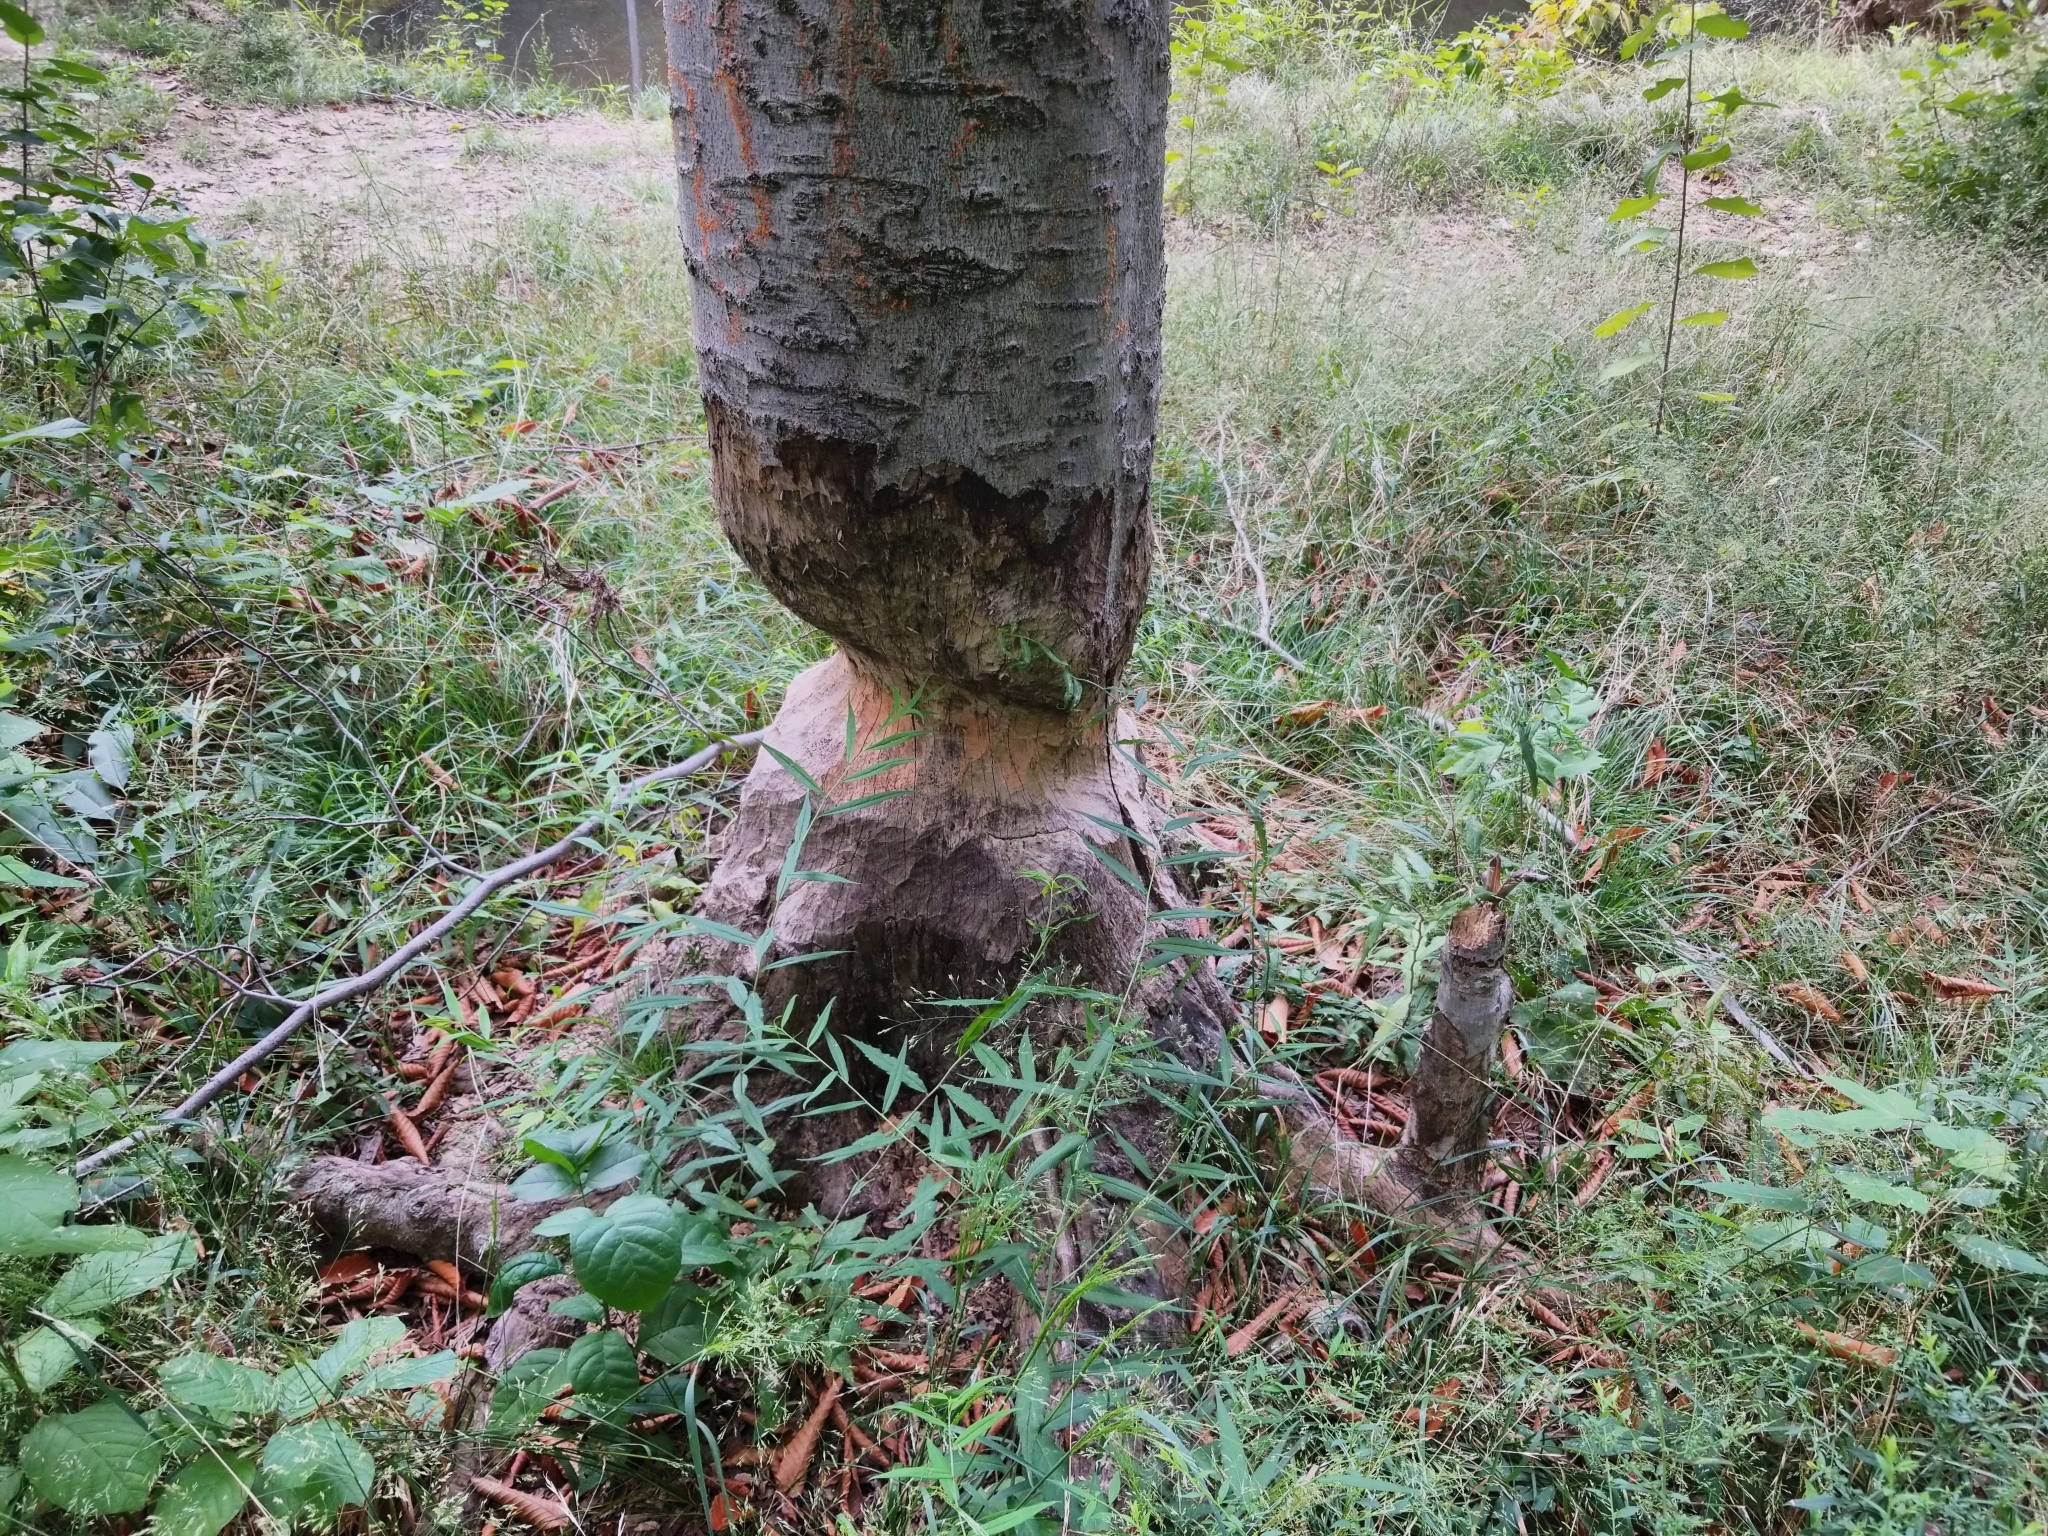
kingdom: Animalia
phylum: Chordata
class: Mammalia
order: Rodentia
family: Castoridae
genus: Castor
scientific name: Castor canadensis
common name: American beaver
